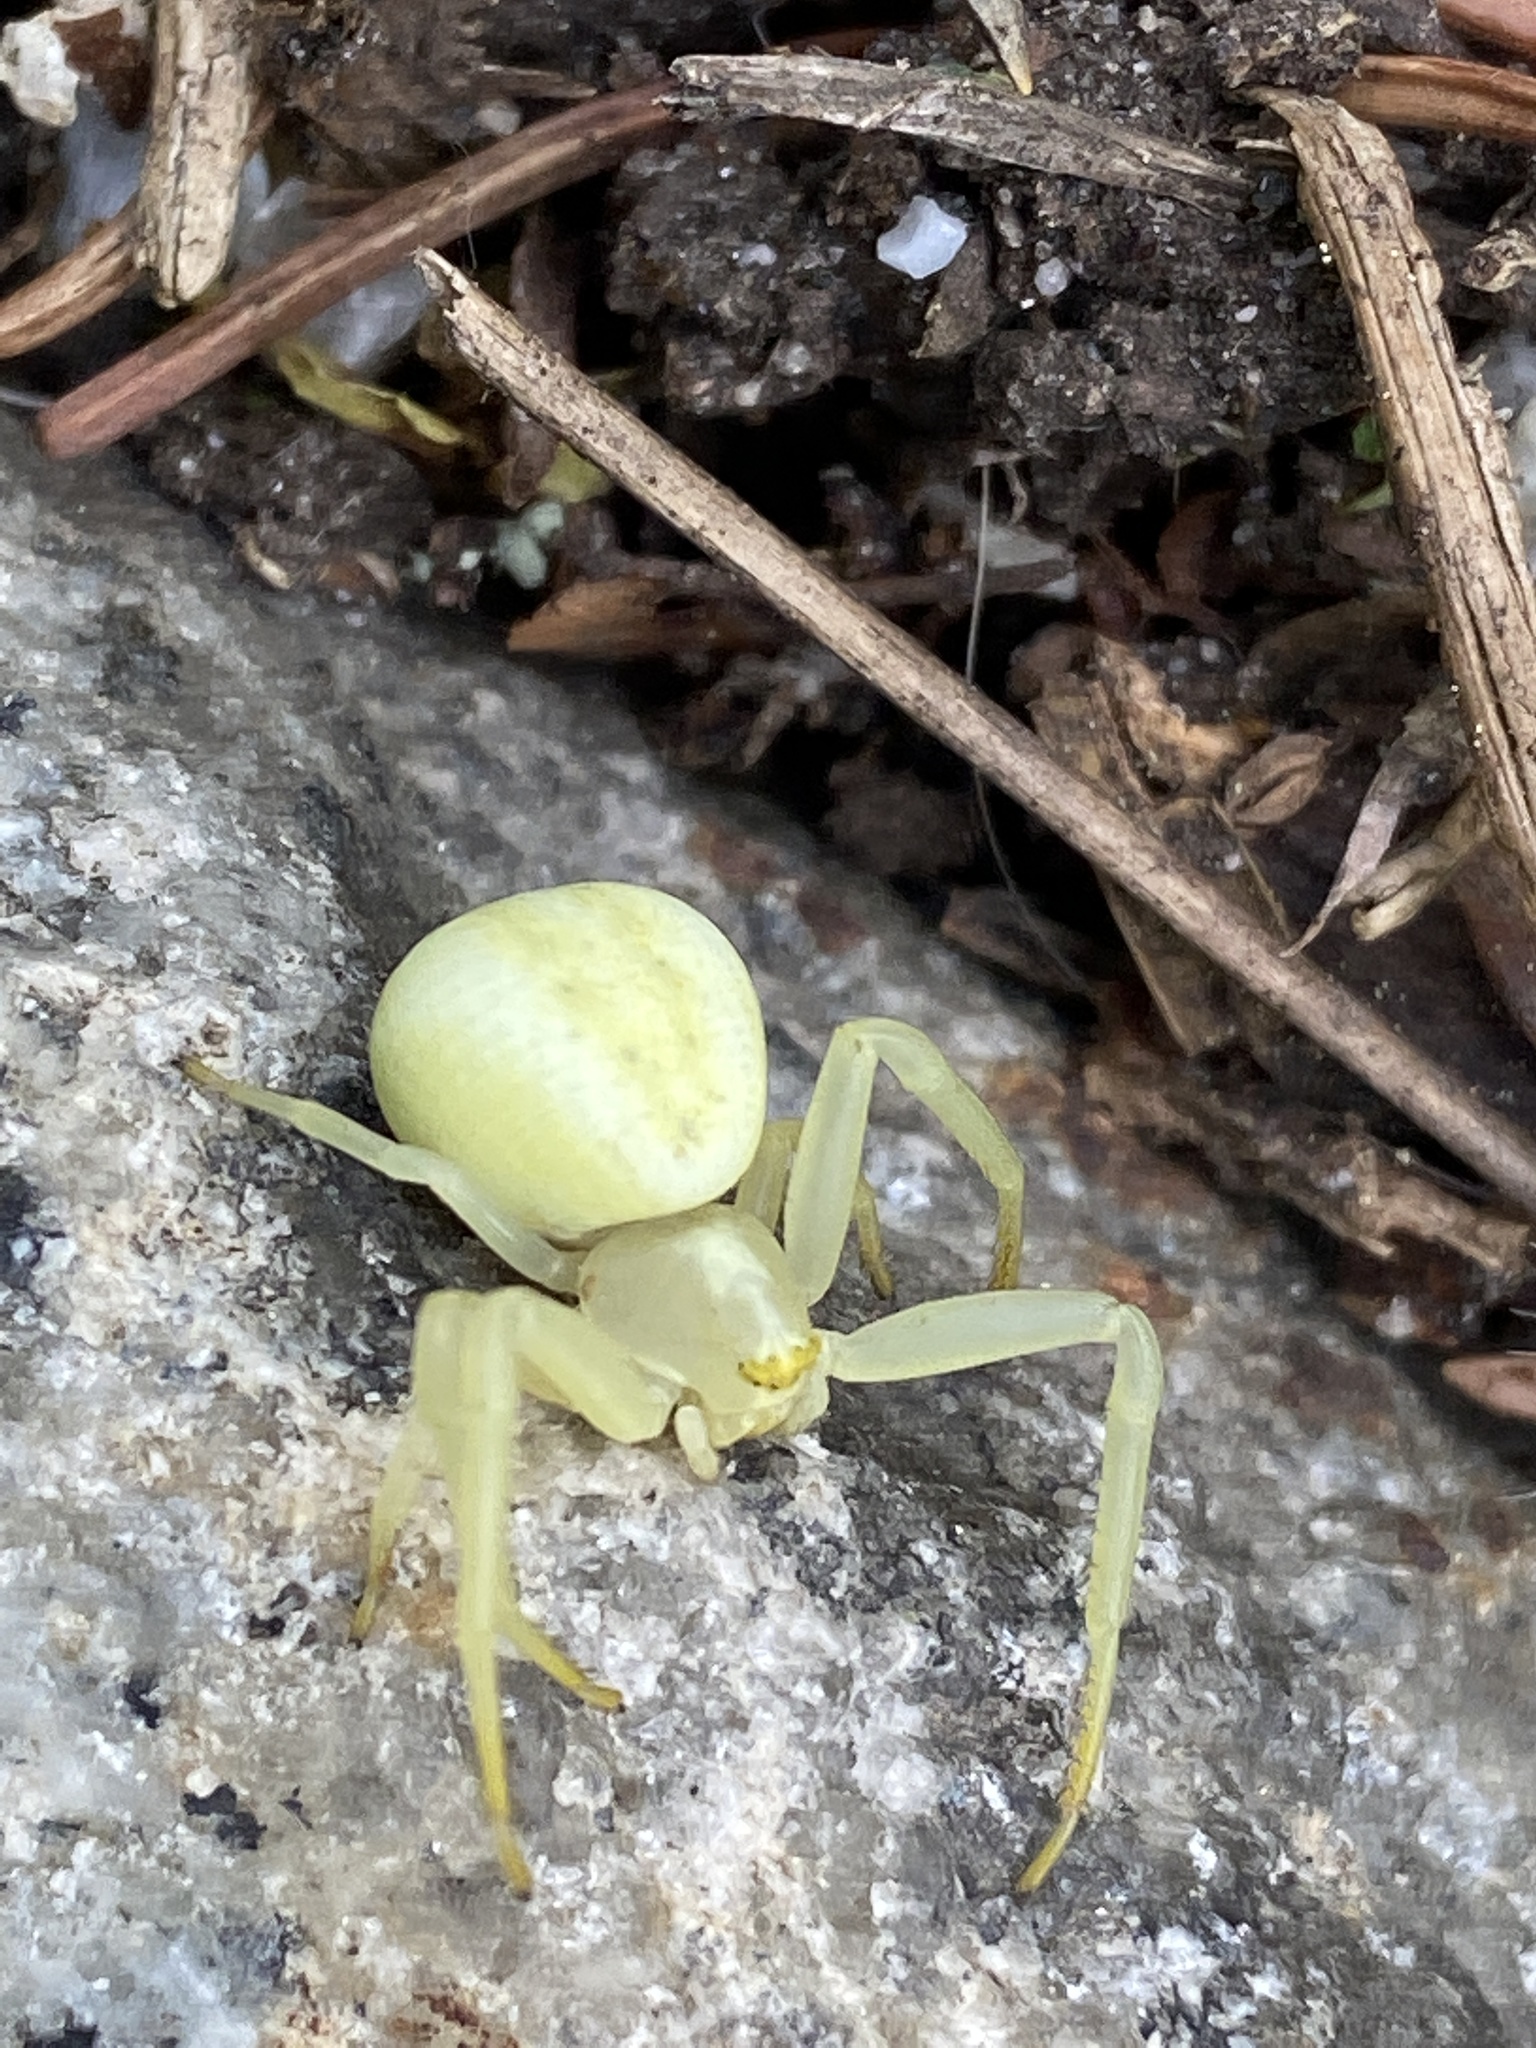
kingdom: Animalia
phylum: Arthropoda
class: Arachnida
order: Araneae
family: Thomisidae
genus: Misumena
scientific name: Misumena vatia
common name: Goldenrod crab spider
